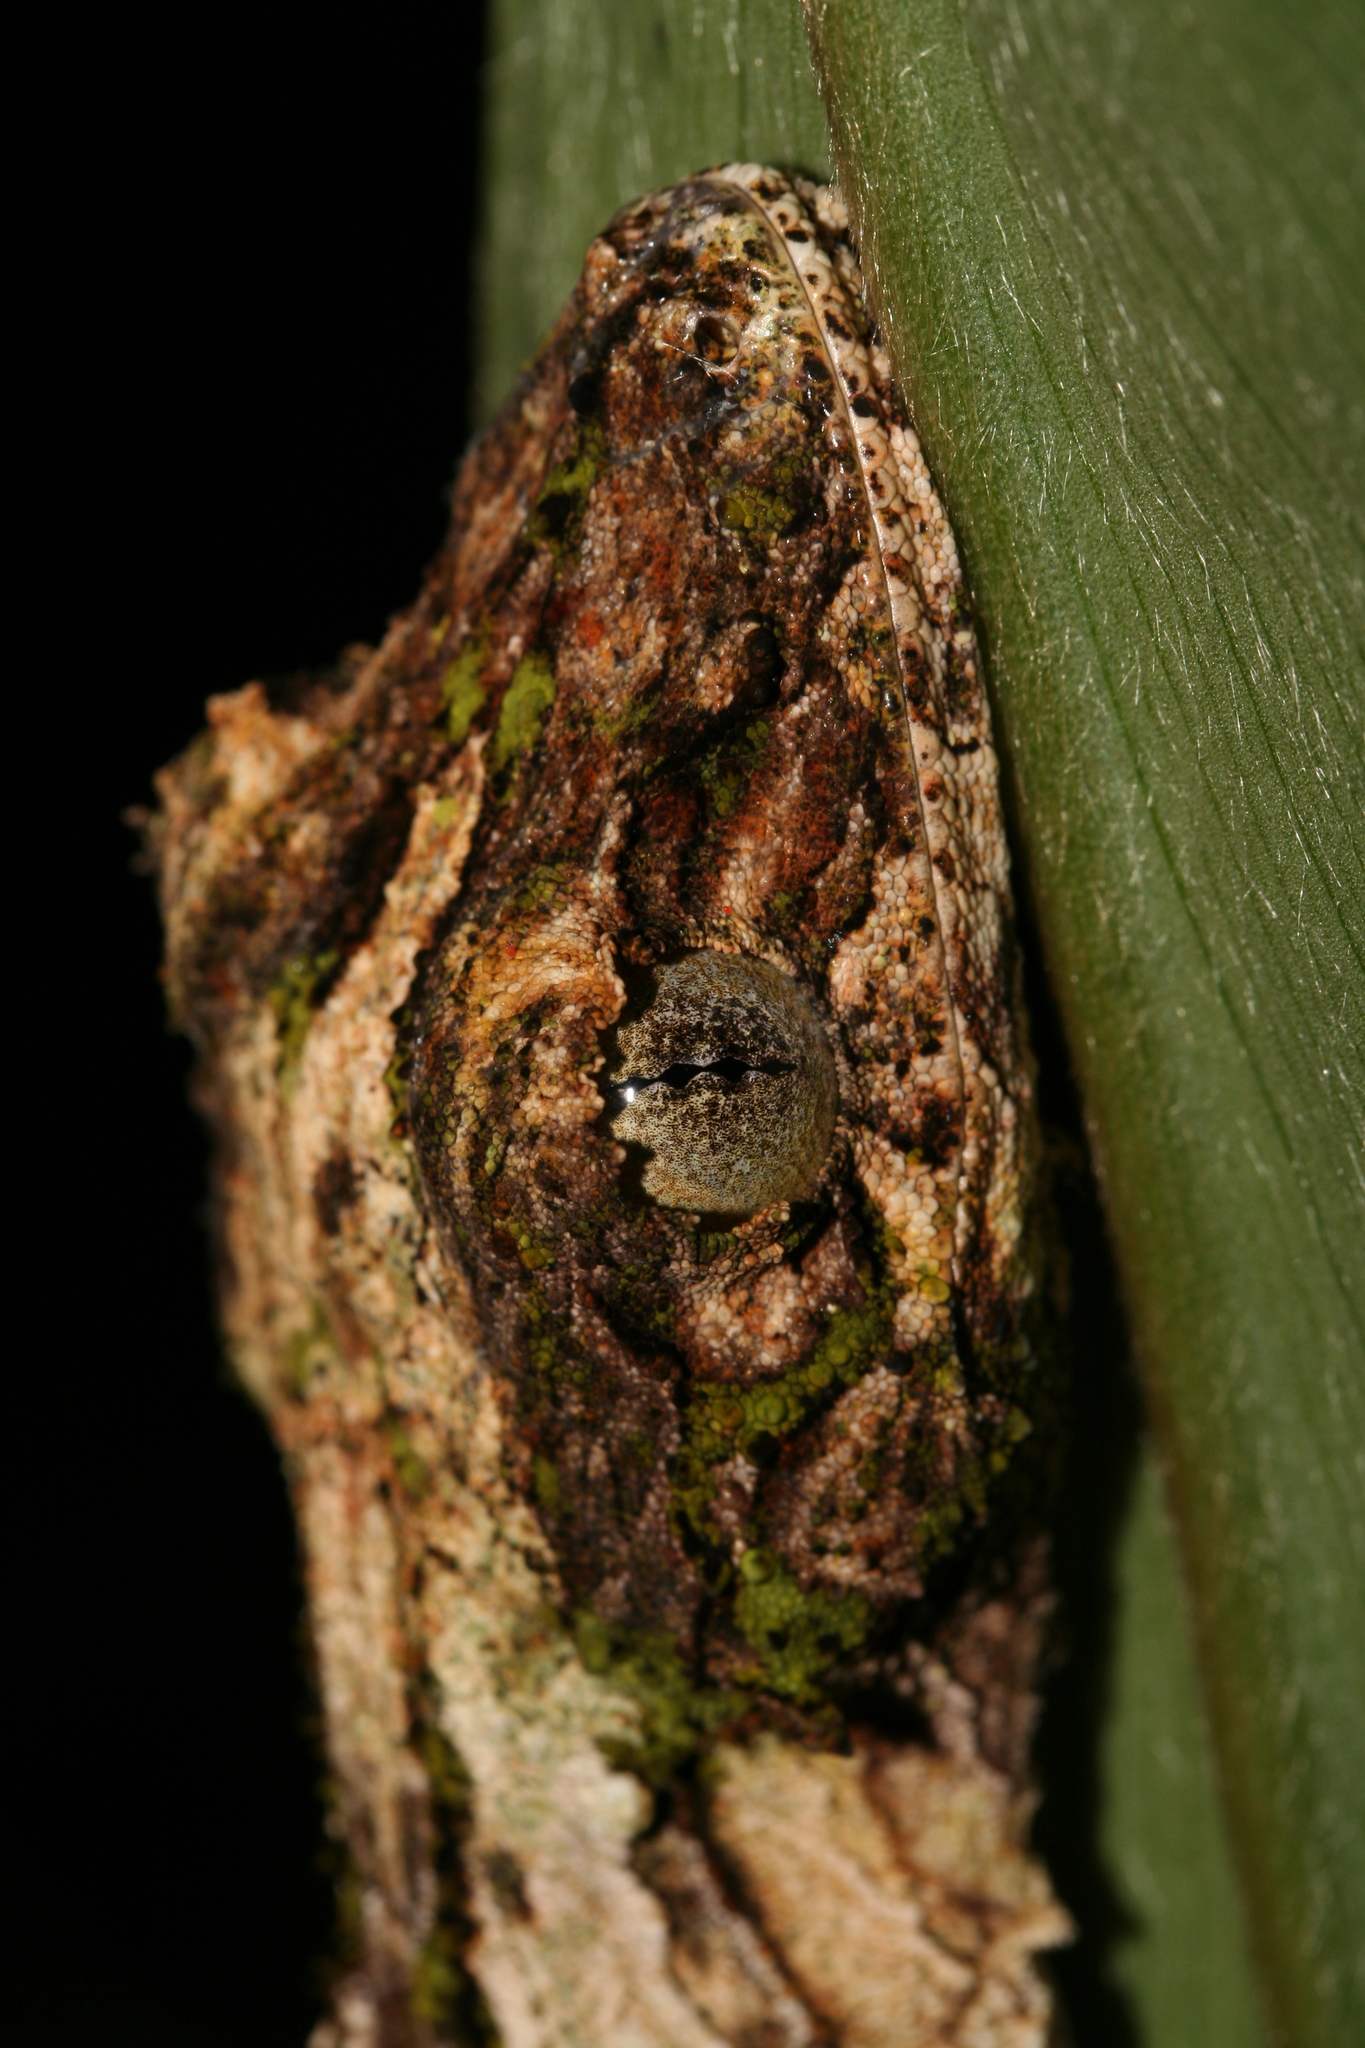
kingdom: Animalia
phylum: Chordata
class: Squamata
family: Gekkonidae
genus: Uroplatus
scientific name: Uroplatus sikorae
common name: Southern flat-tail gecko
